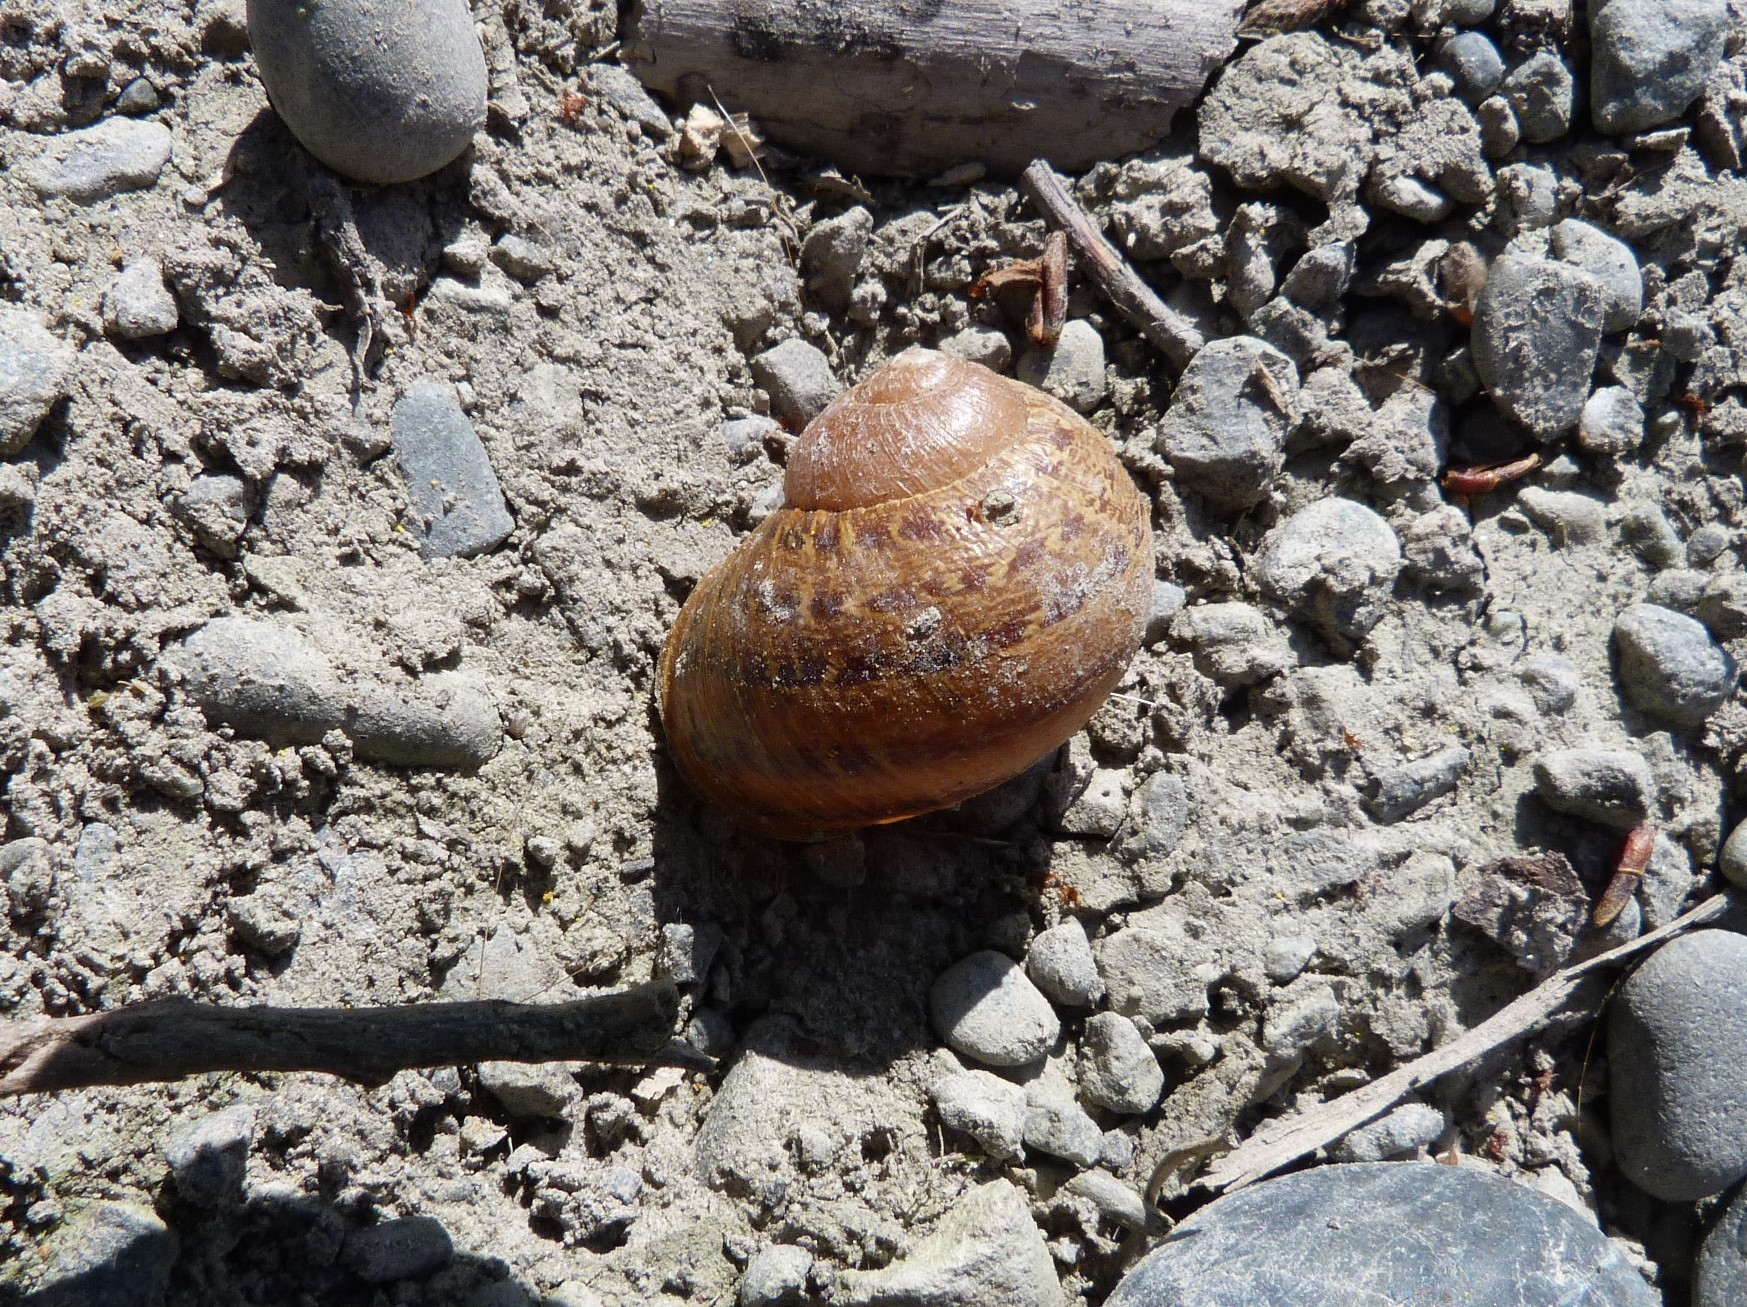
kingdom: Animalia
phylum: Mollusca
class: Gastropoda
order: Stylommatophora
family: Helicidae
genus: Cornu
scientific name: Cornu aspersum
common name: Brown garden snail
